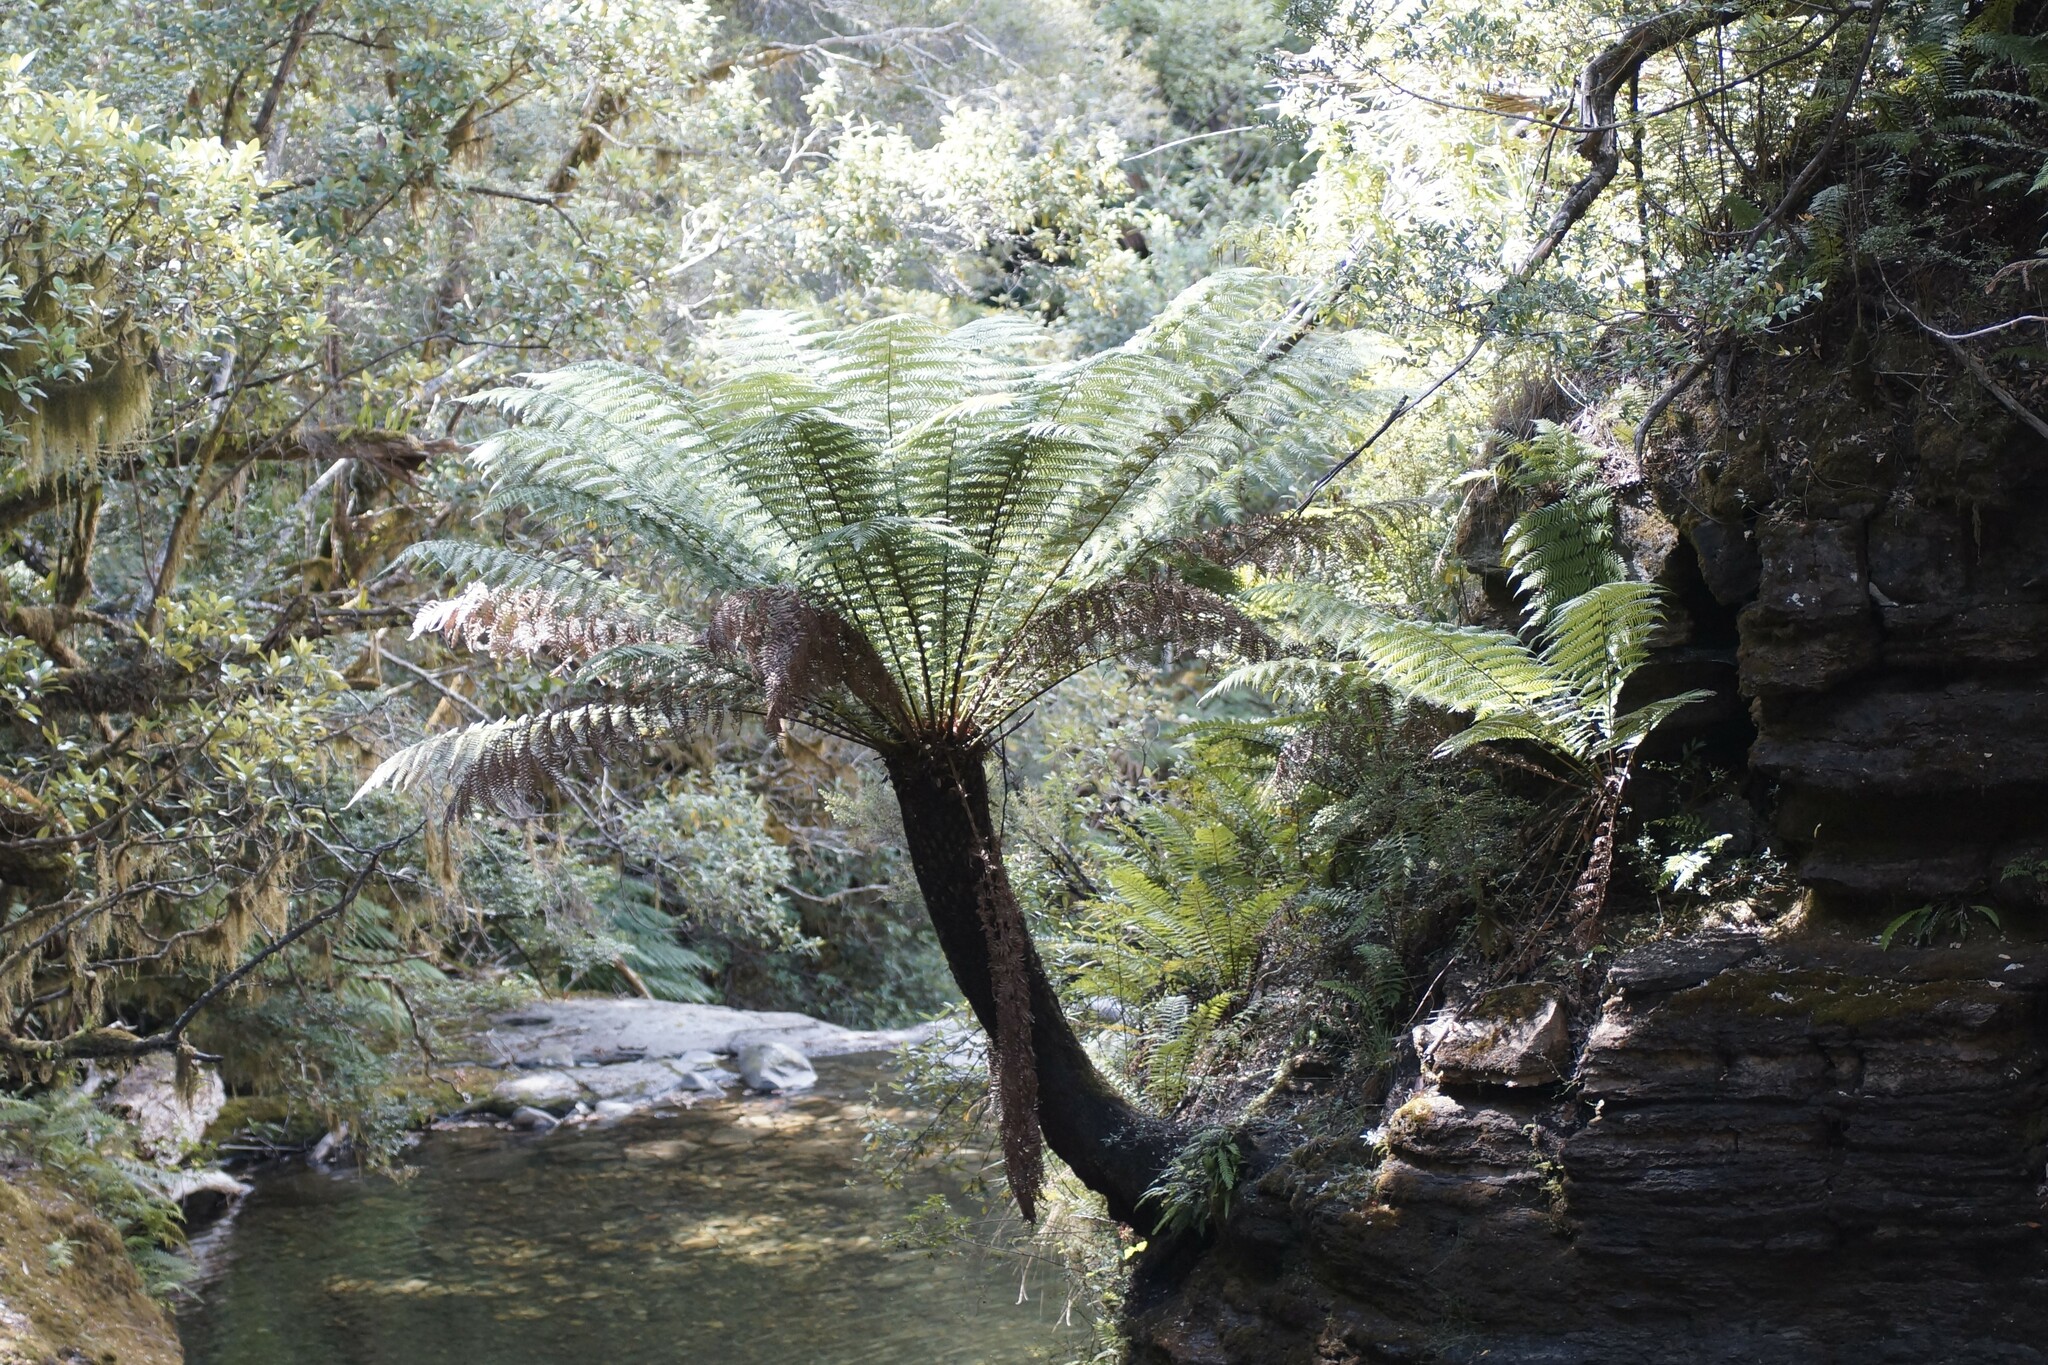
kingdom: Plantae
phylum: Tracheophyta
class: Polypodiopsida
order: Cyatheales
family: Dicksoniaceae
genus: Dicksonia
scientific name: Dicksonia antarctica
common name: Australian treefern
